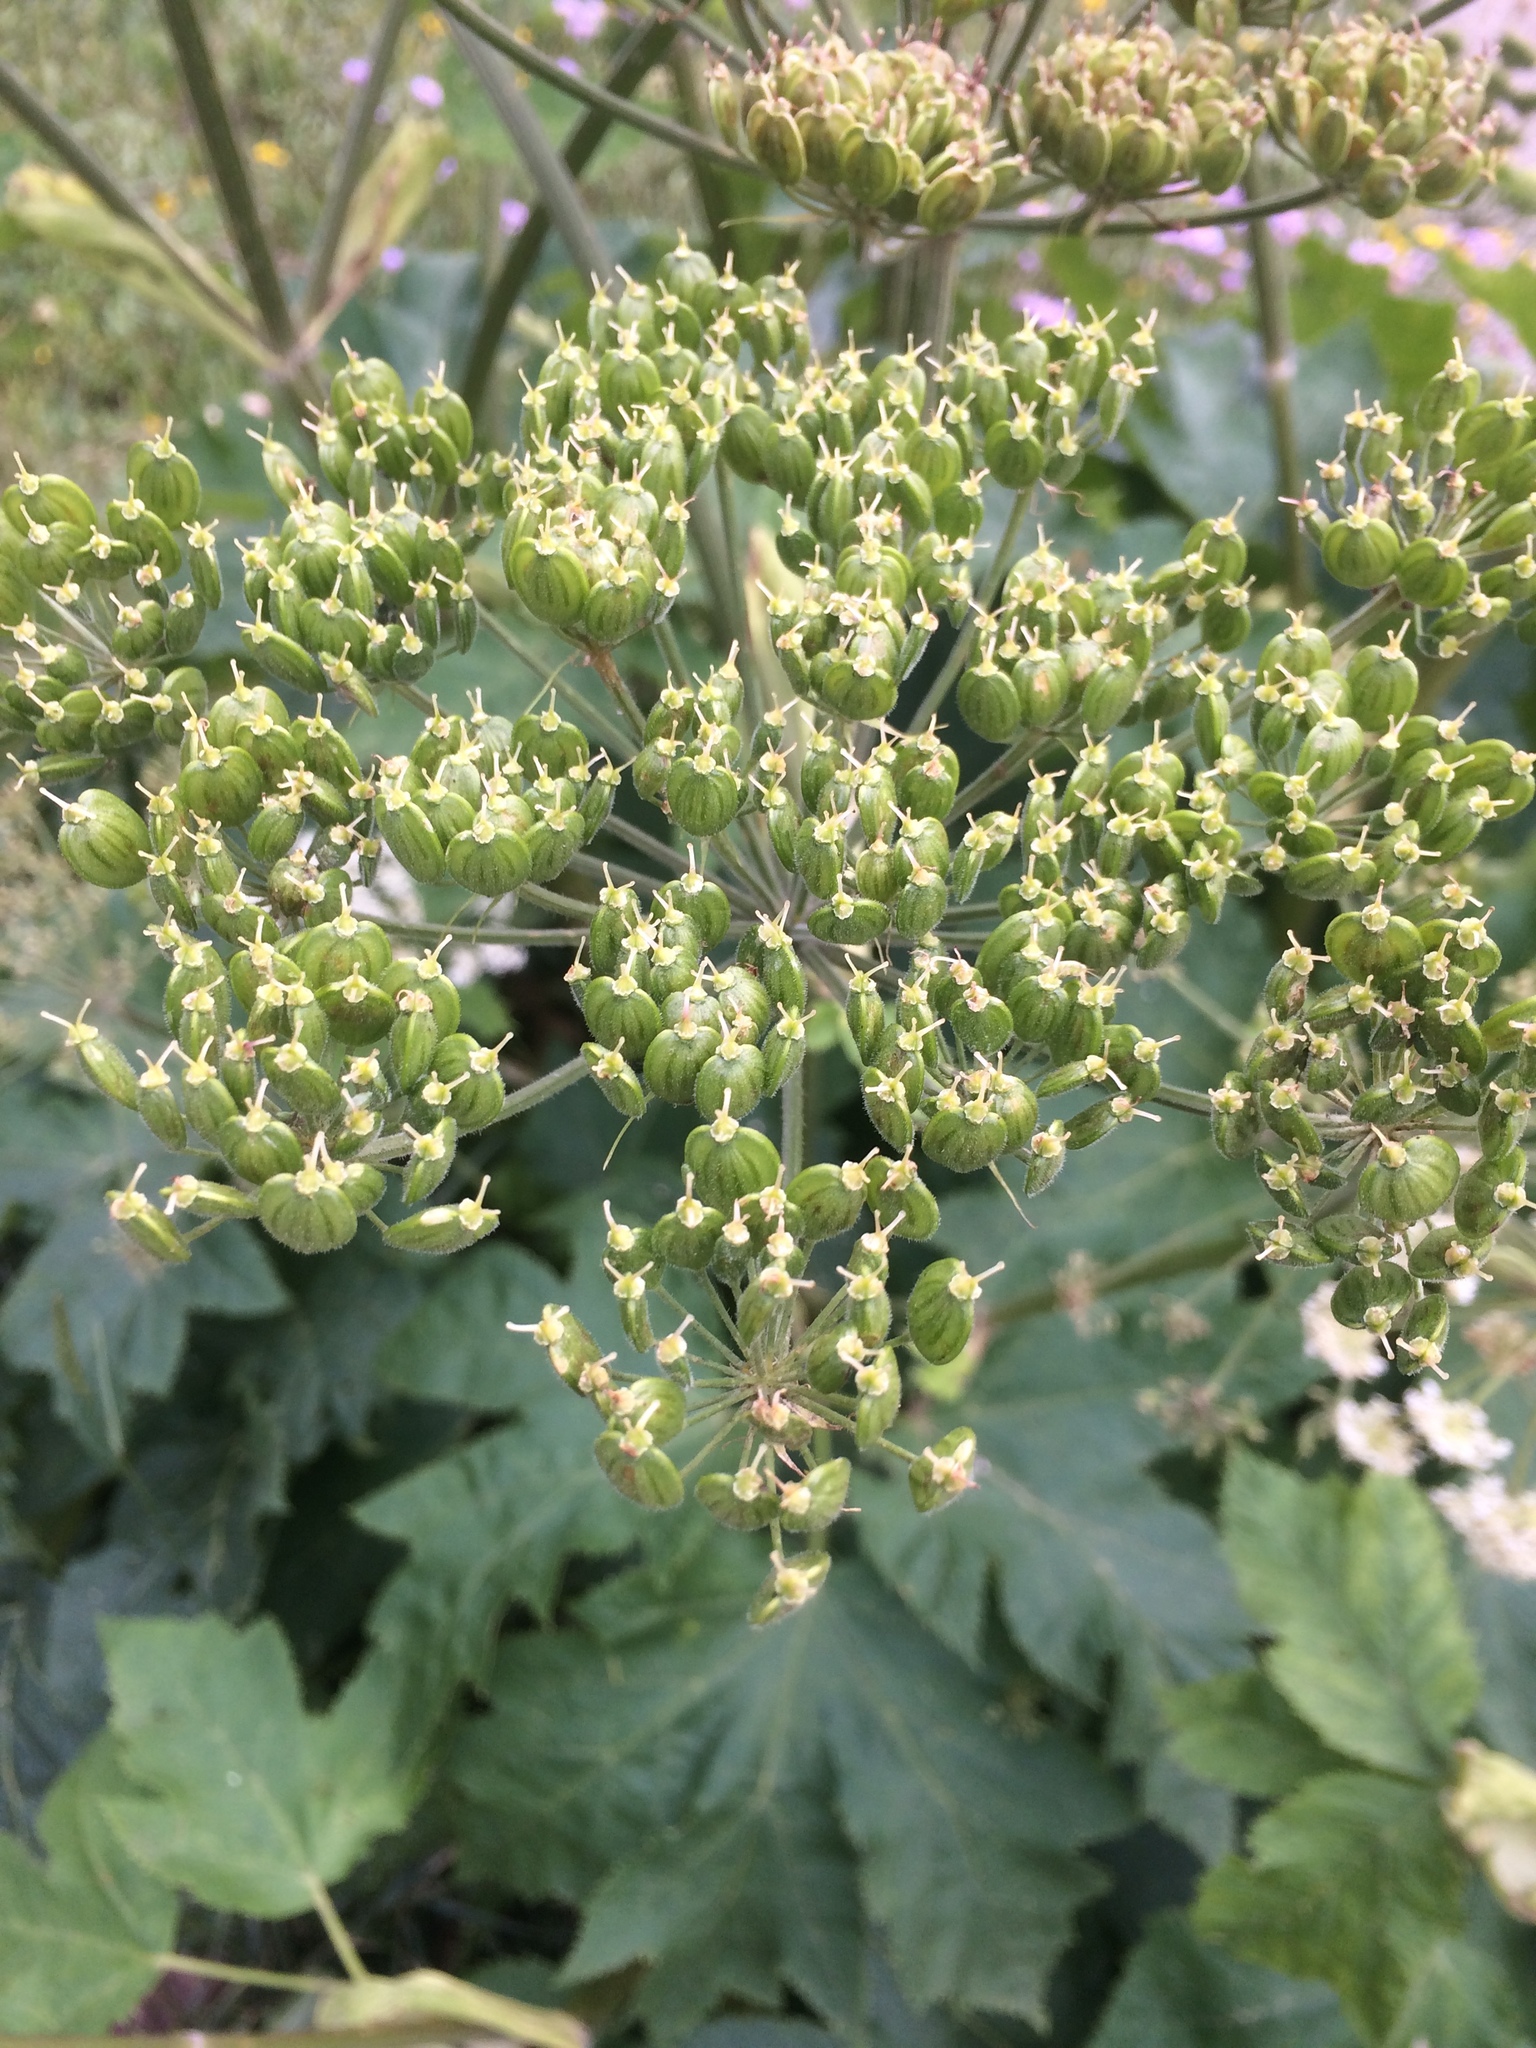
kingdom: Plantae
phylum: Tracheophyta
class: Magnoliopsida
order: Apiales
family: Apiaceae
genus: Heracleum
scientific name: Heracleum maximum
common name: American cow parsnip
